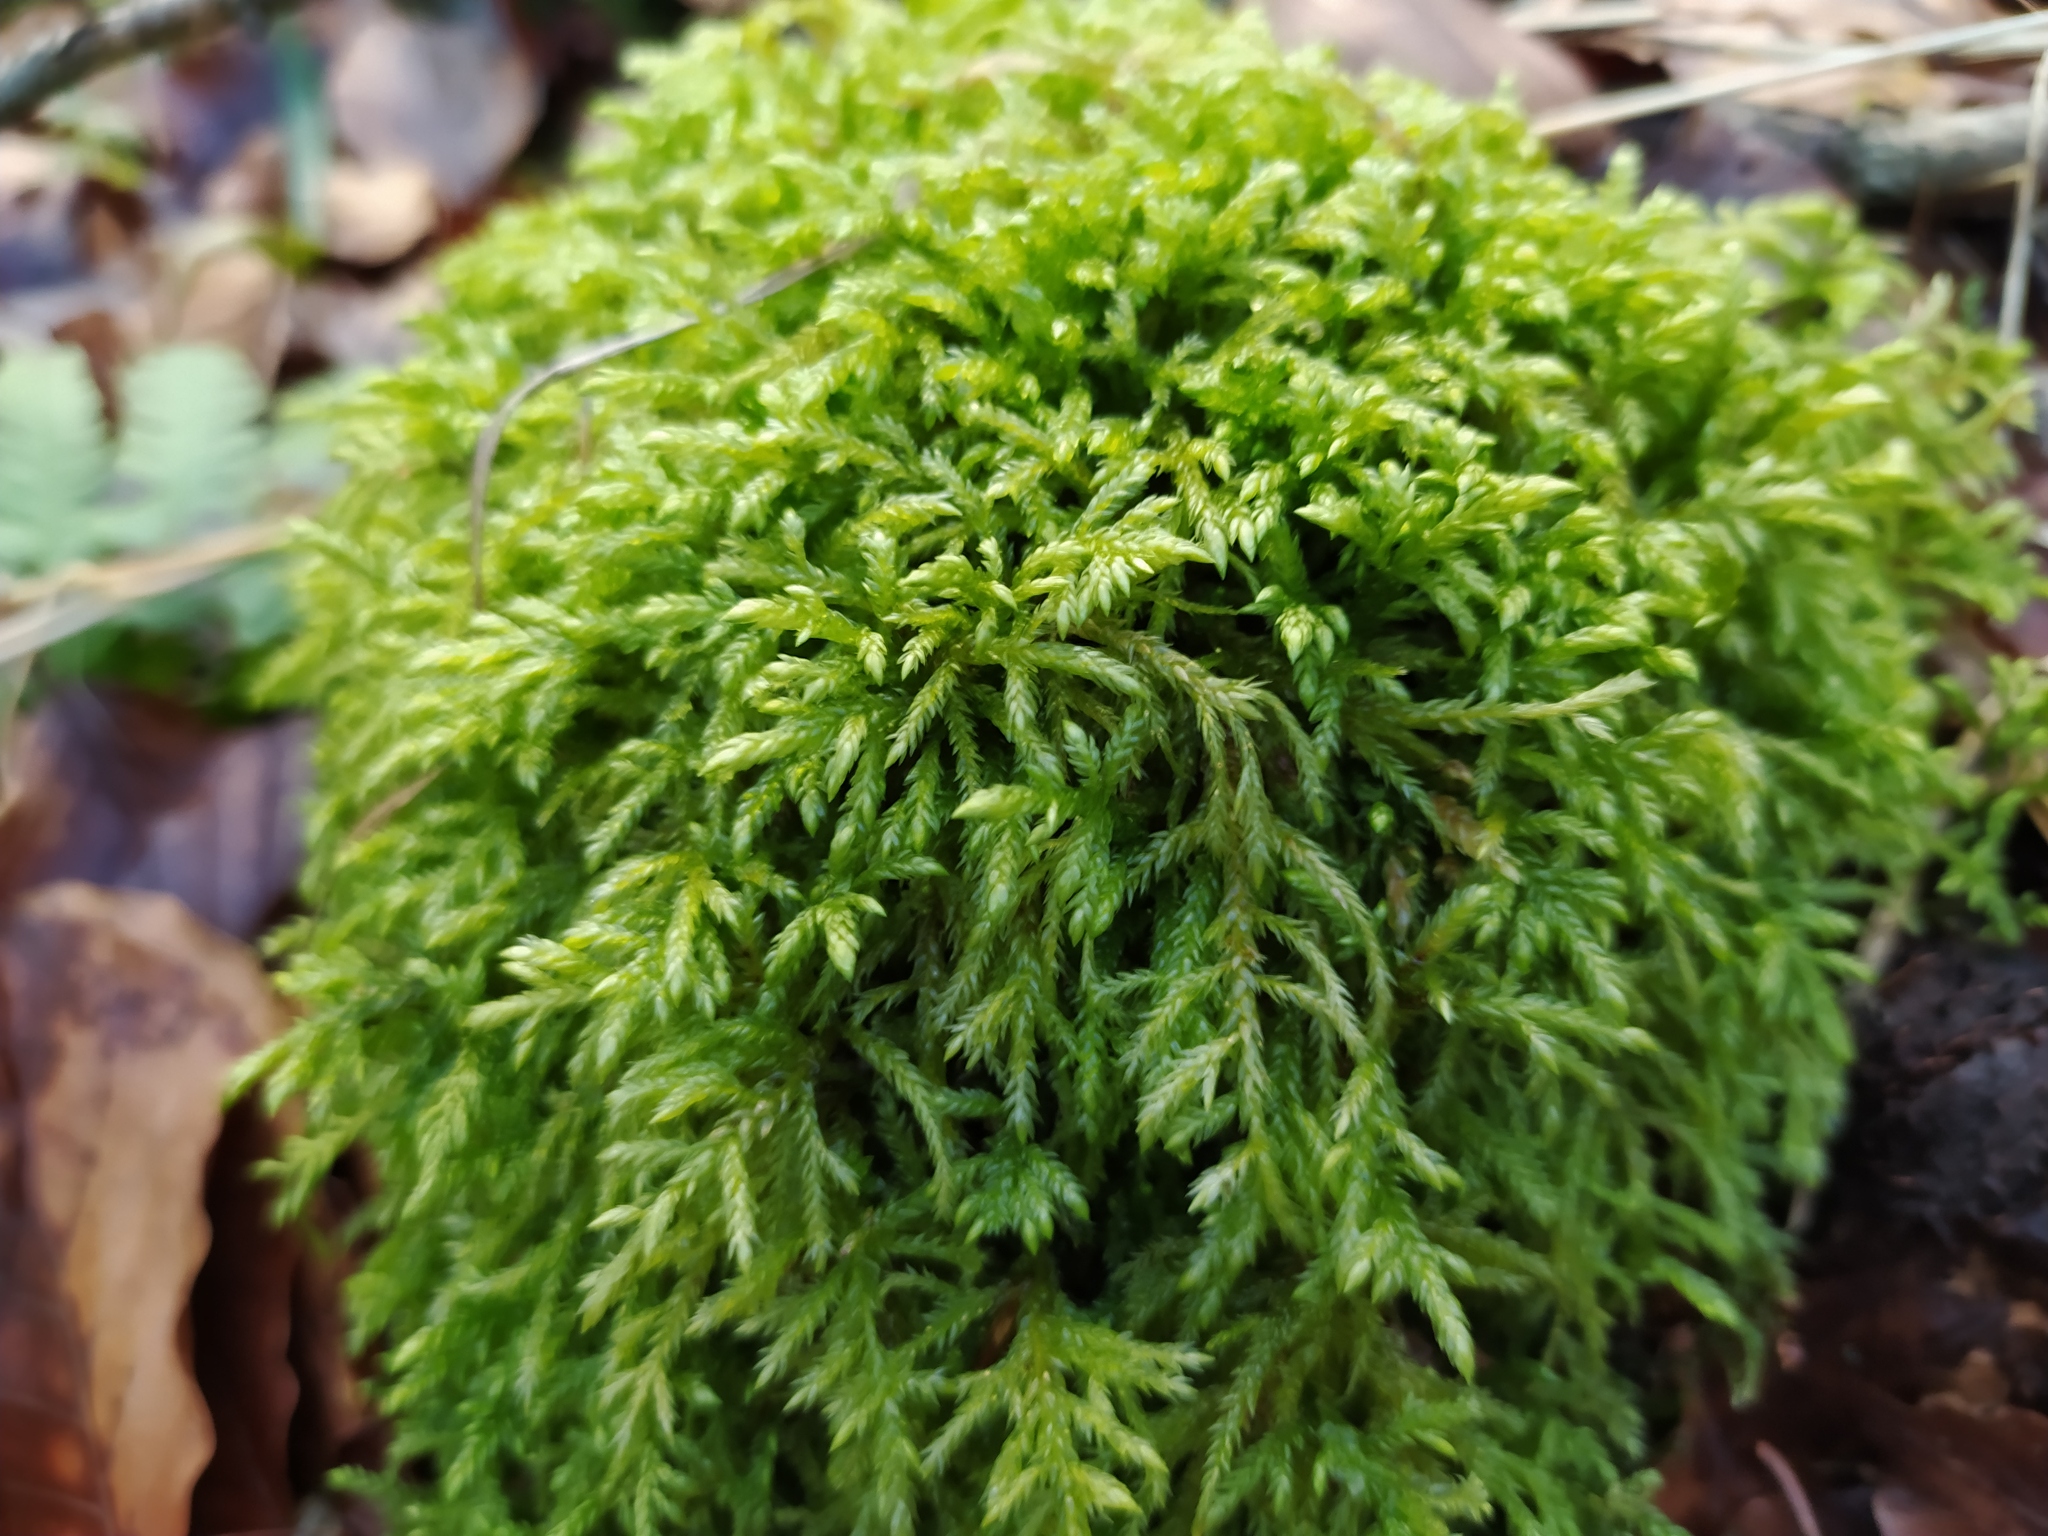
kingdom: Plantae
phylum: Bryophyta
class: Bryopsida
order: Hypnales
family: Lembophyllaceae
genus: Isothecium
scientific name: Isothecium alopecuroides
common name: Larger mouse-tail moss
